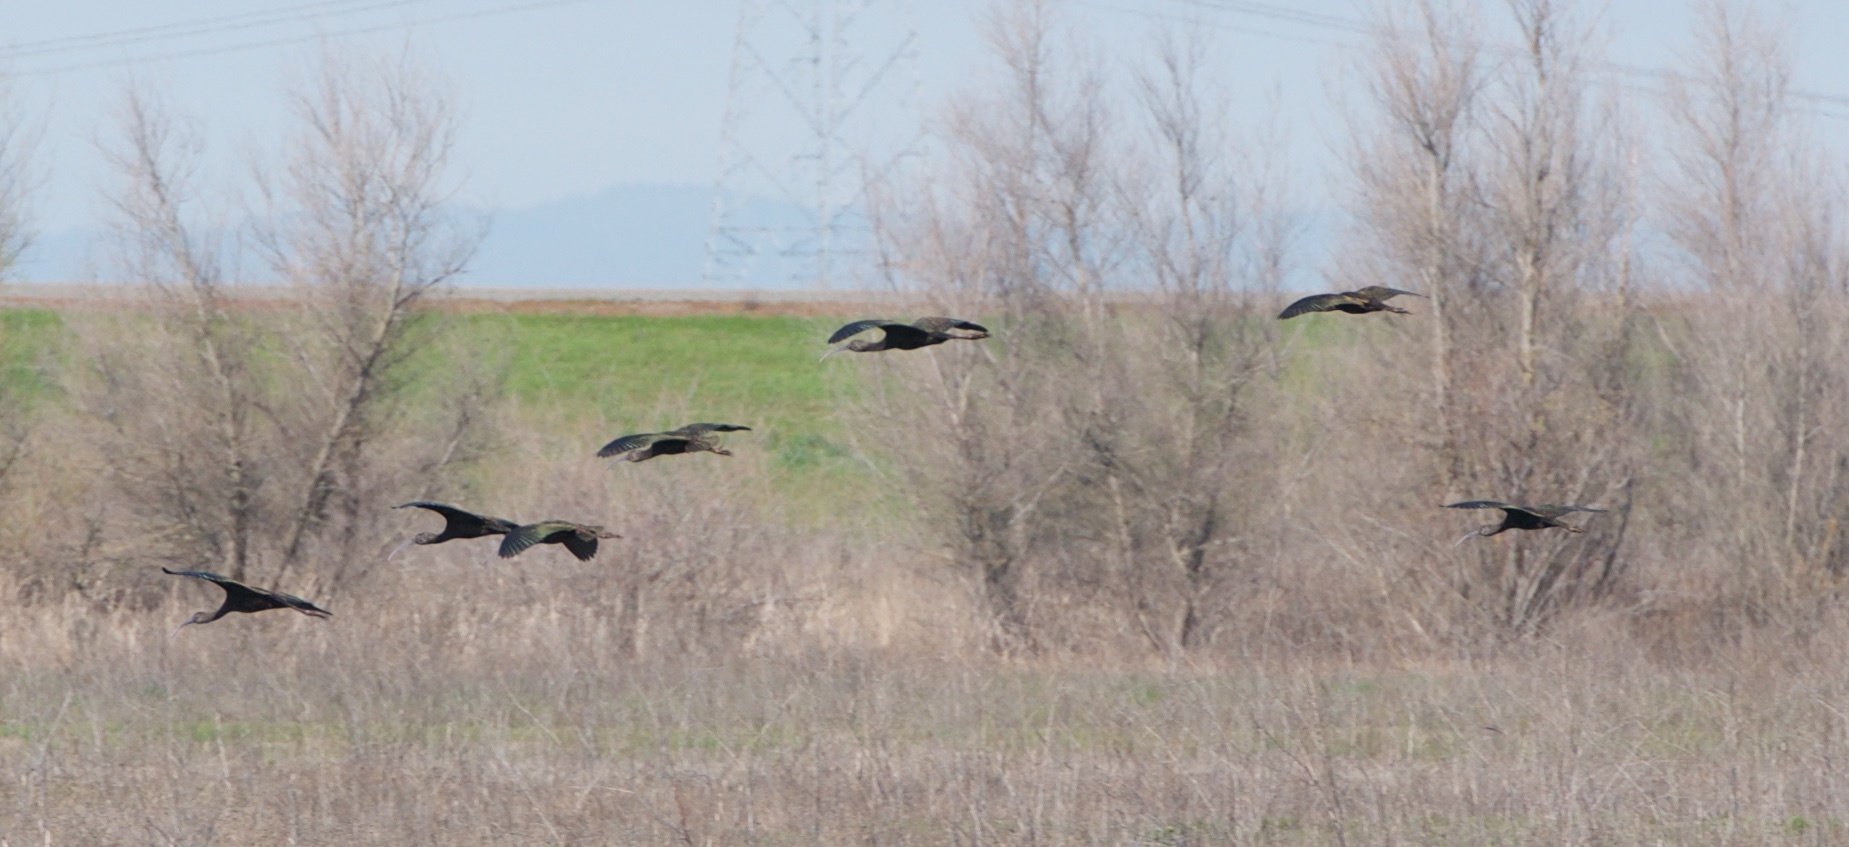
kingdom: Animalia
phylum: Chordata
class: Aves
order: Pelecaniformes
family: Threskiornithidae
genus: Plegadis
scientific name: Plegadis chihi
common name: White-faced ibis
